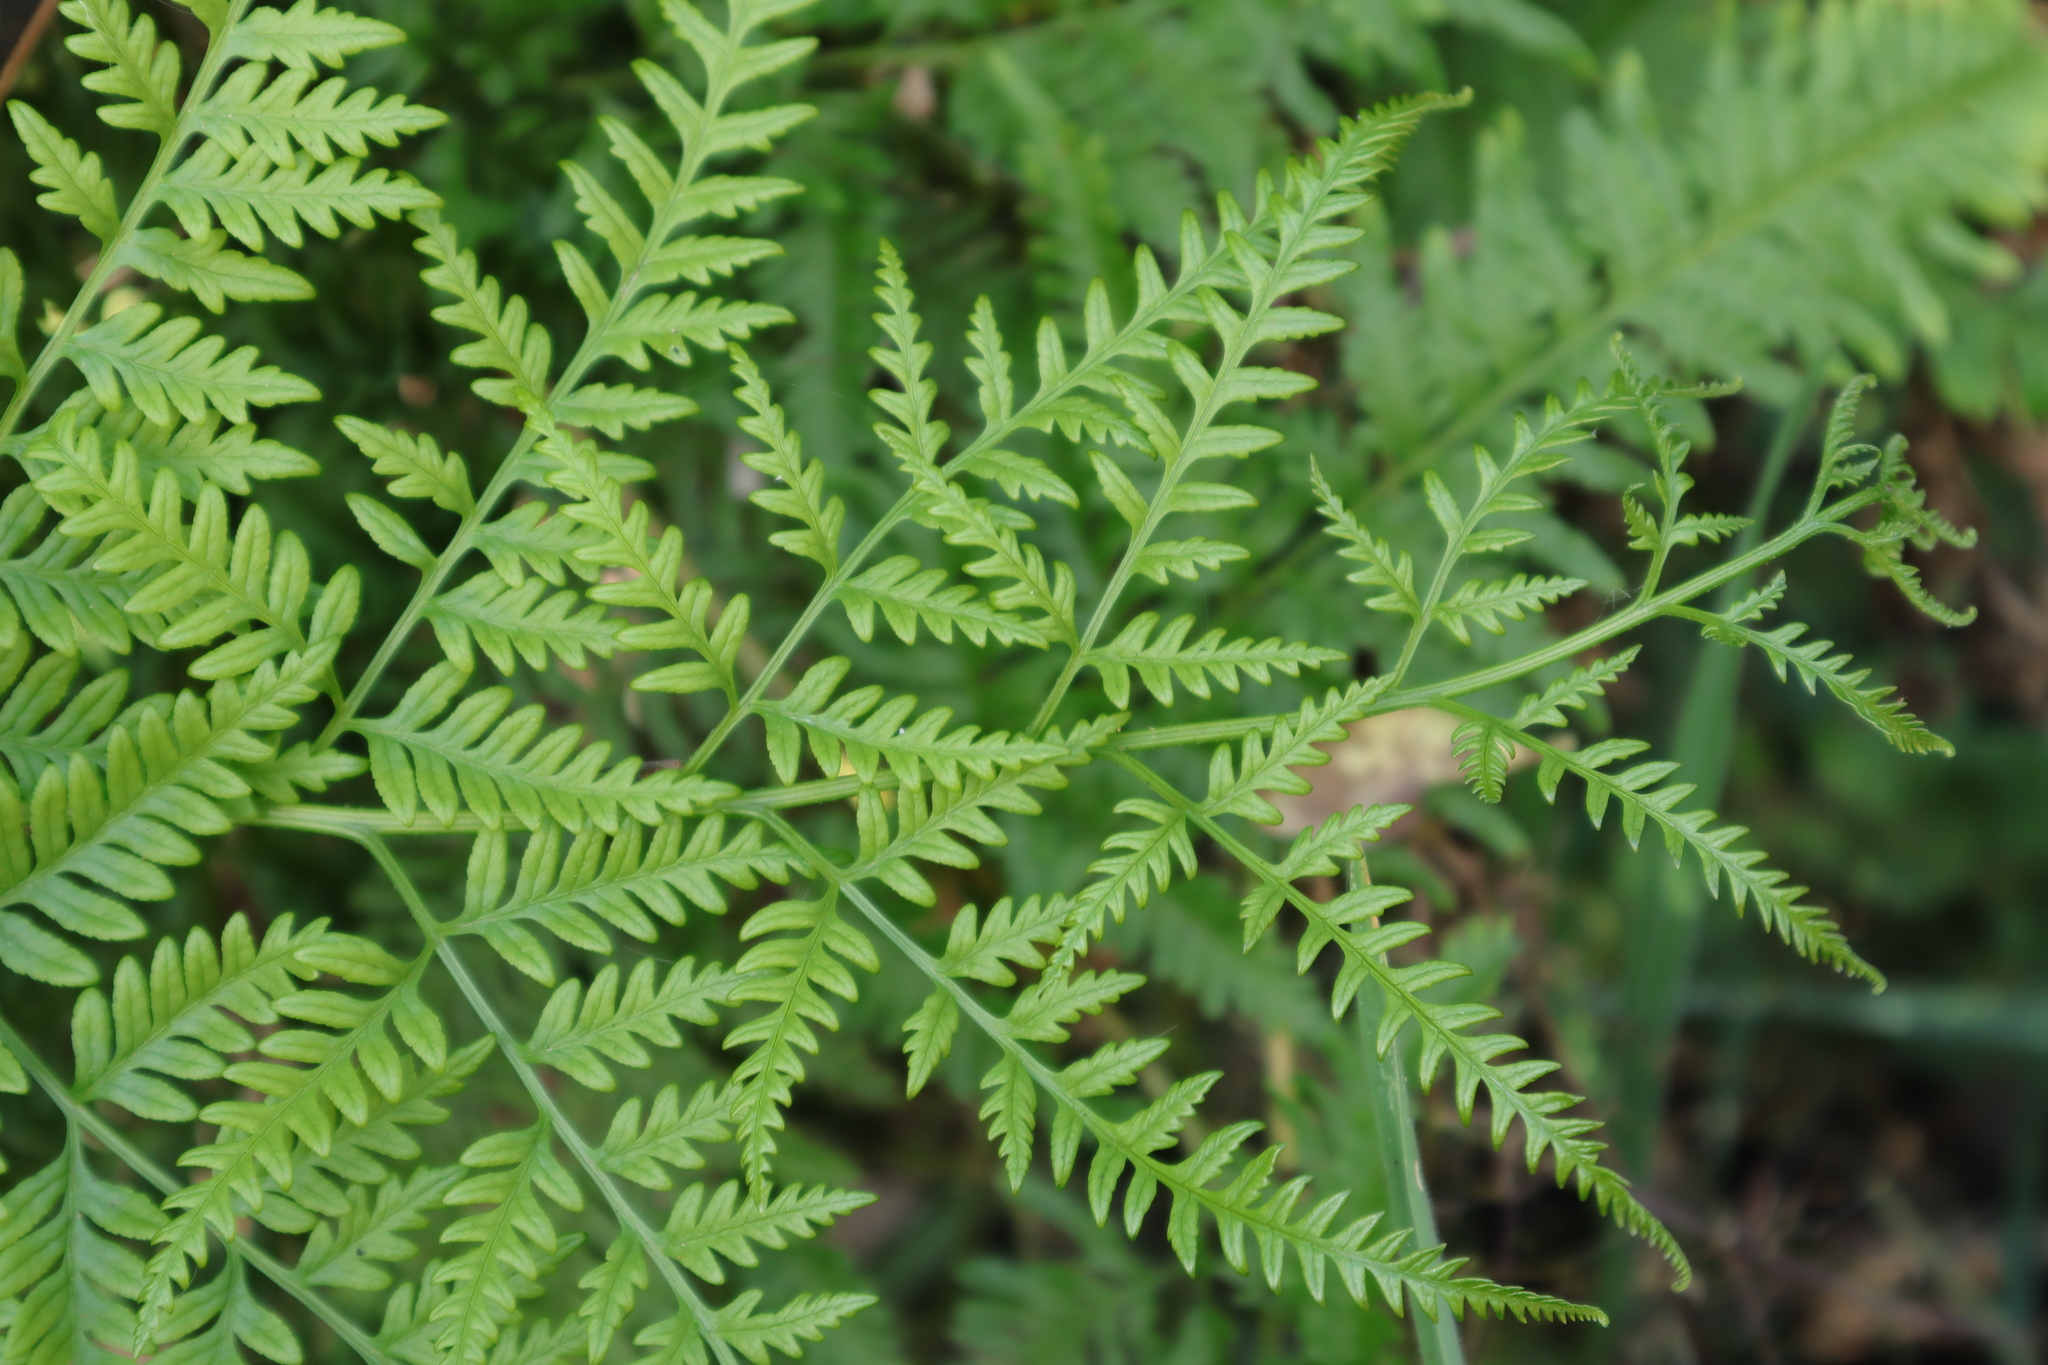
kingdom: Plantae
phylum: Tracheophyta
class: Polypodiopsida
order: Polypodiales
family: Pteridaceae
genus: Pteris
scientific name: Pteris tremula
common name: Australian brake
